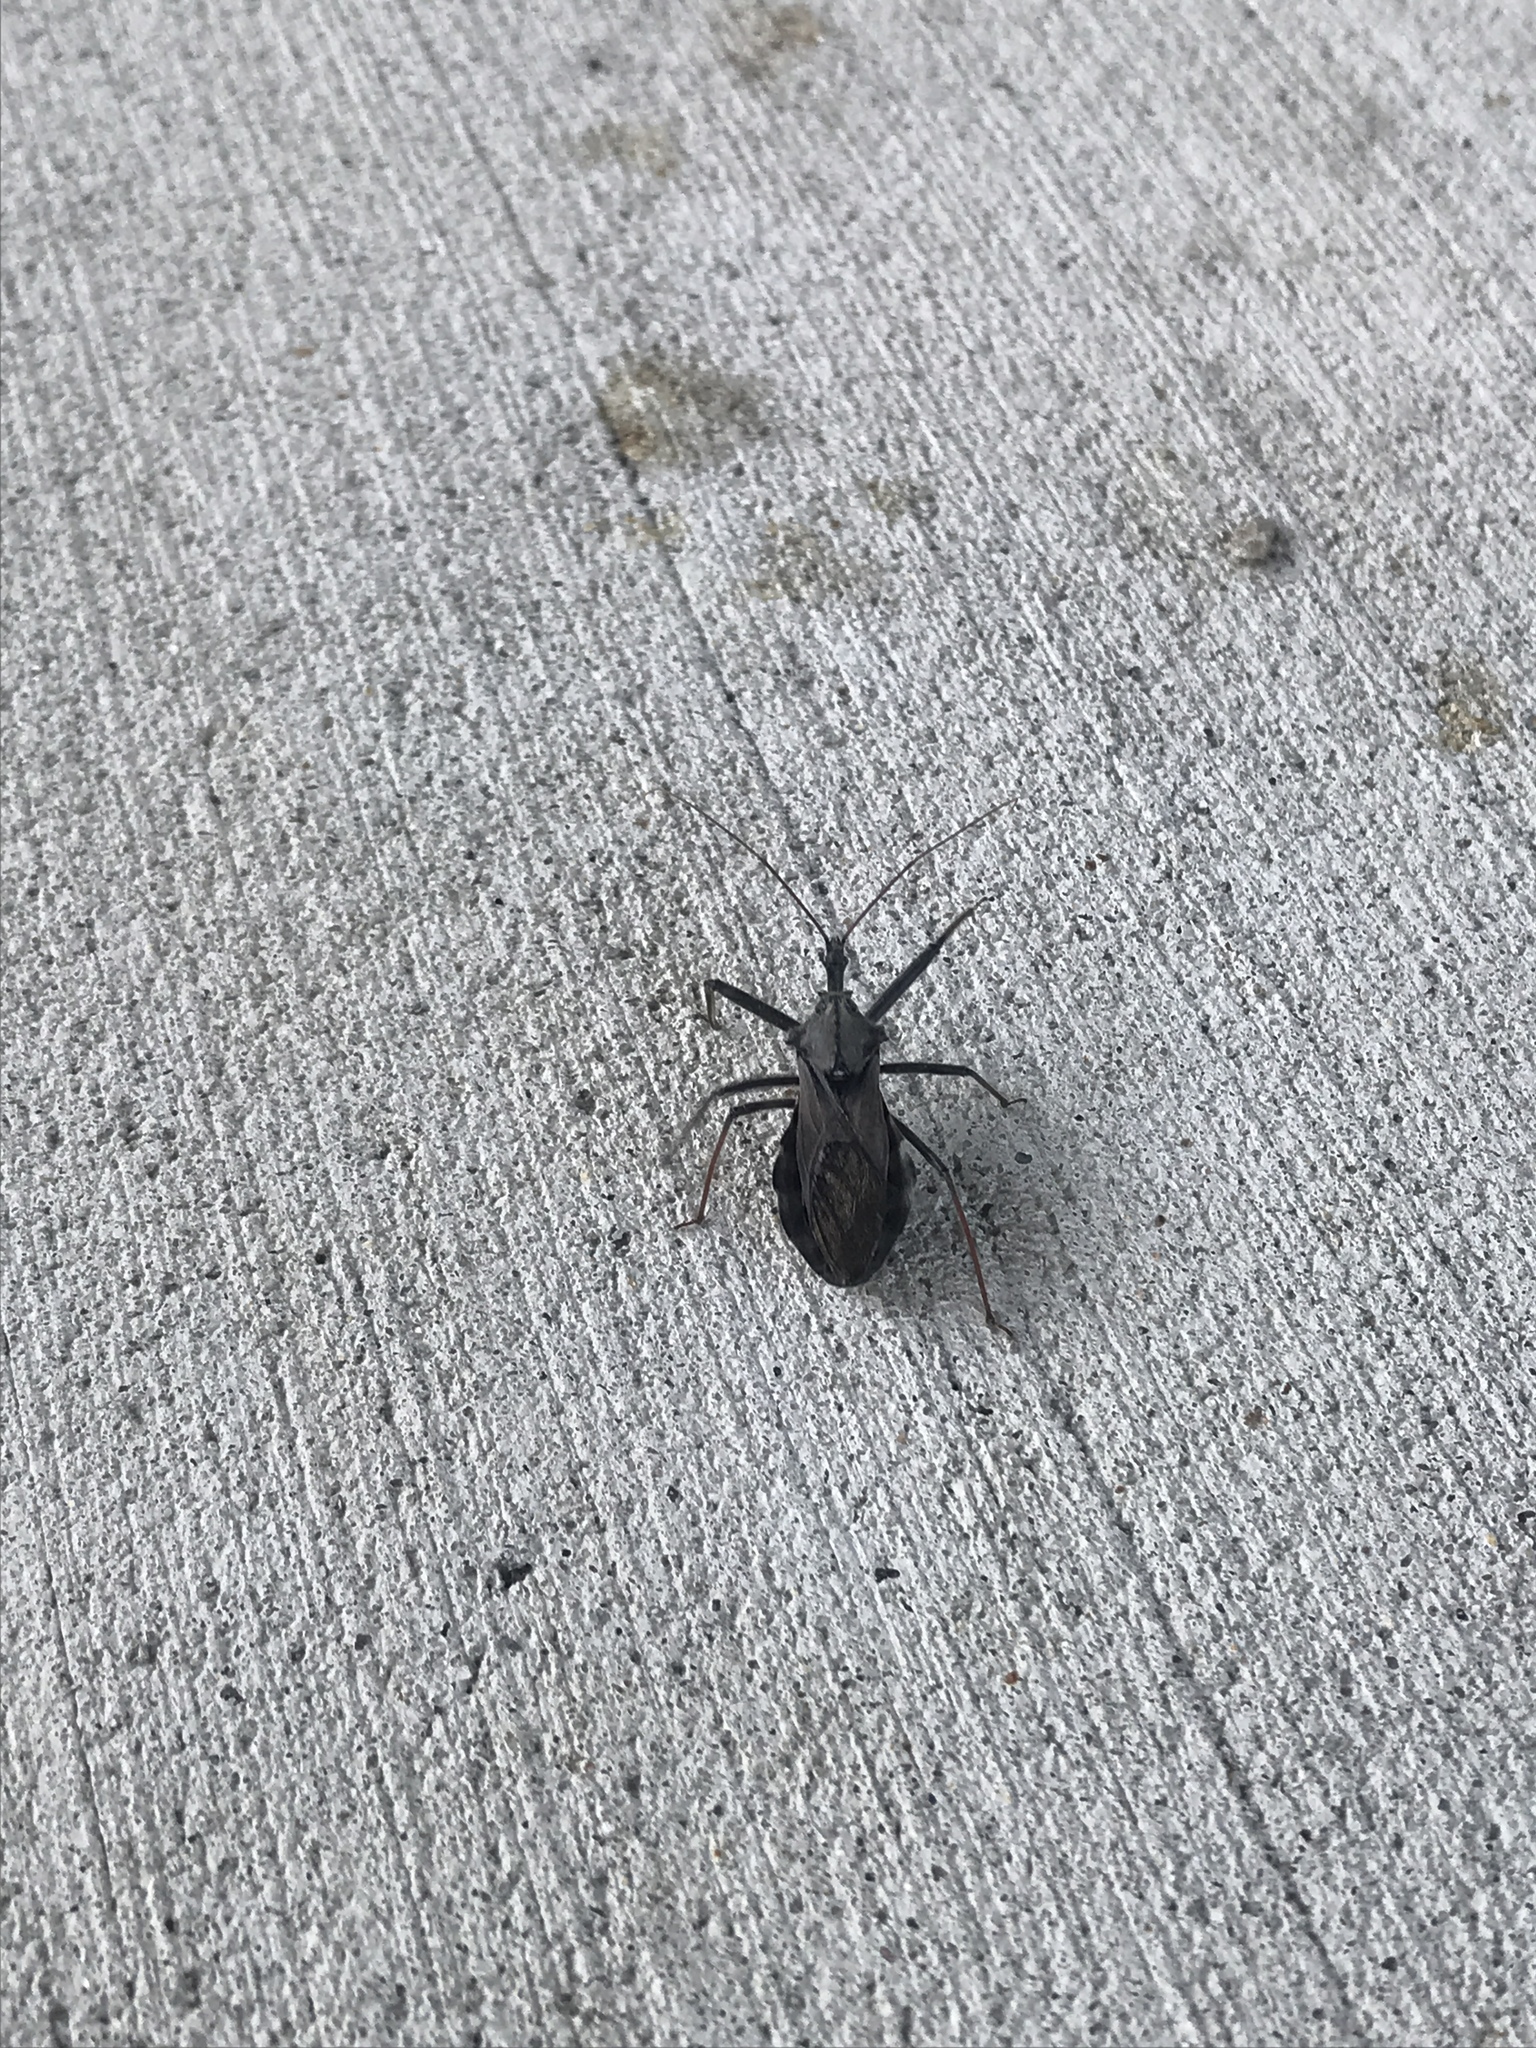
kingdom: Animalia
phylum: Arthropoda
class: Insecta
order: Hemiptera
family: Reduviidae
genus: Arilus
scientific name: Arilus cristatus
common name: North american wheel bug
